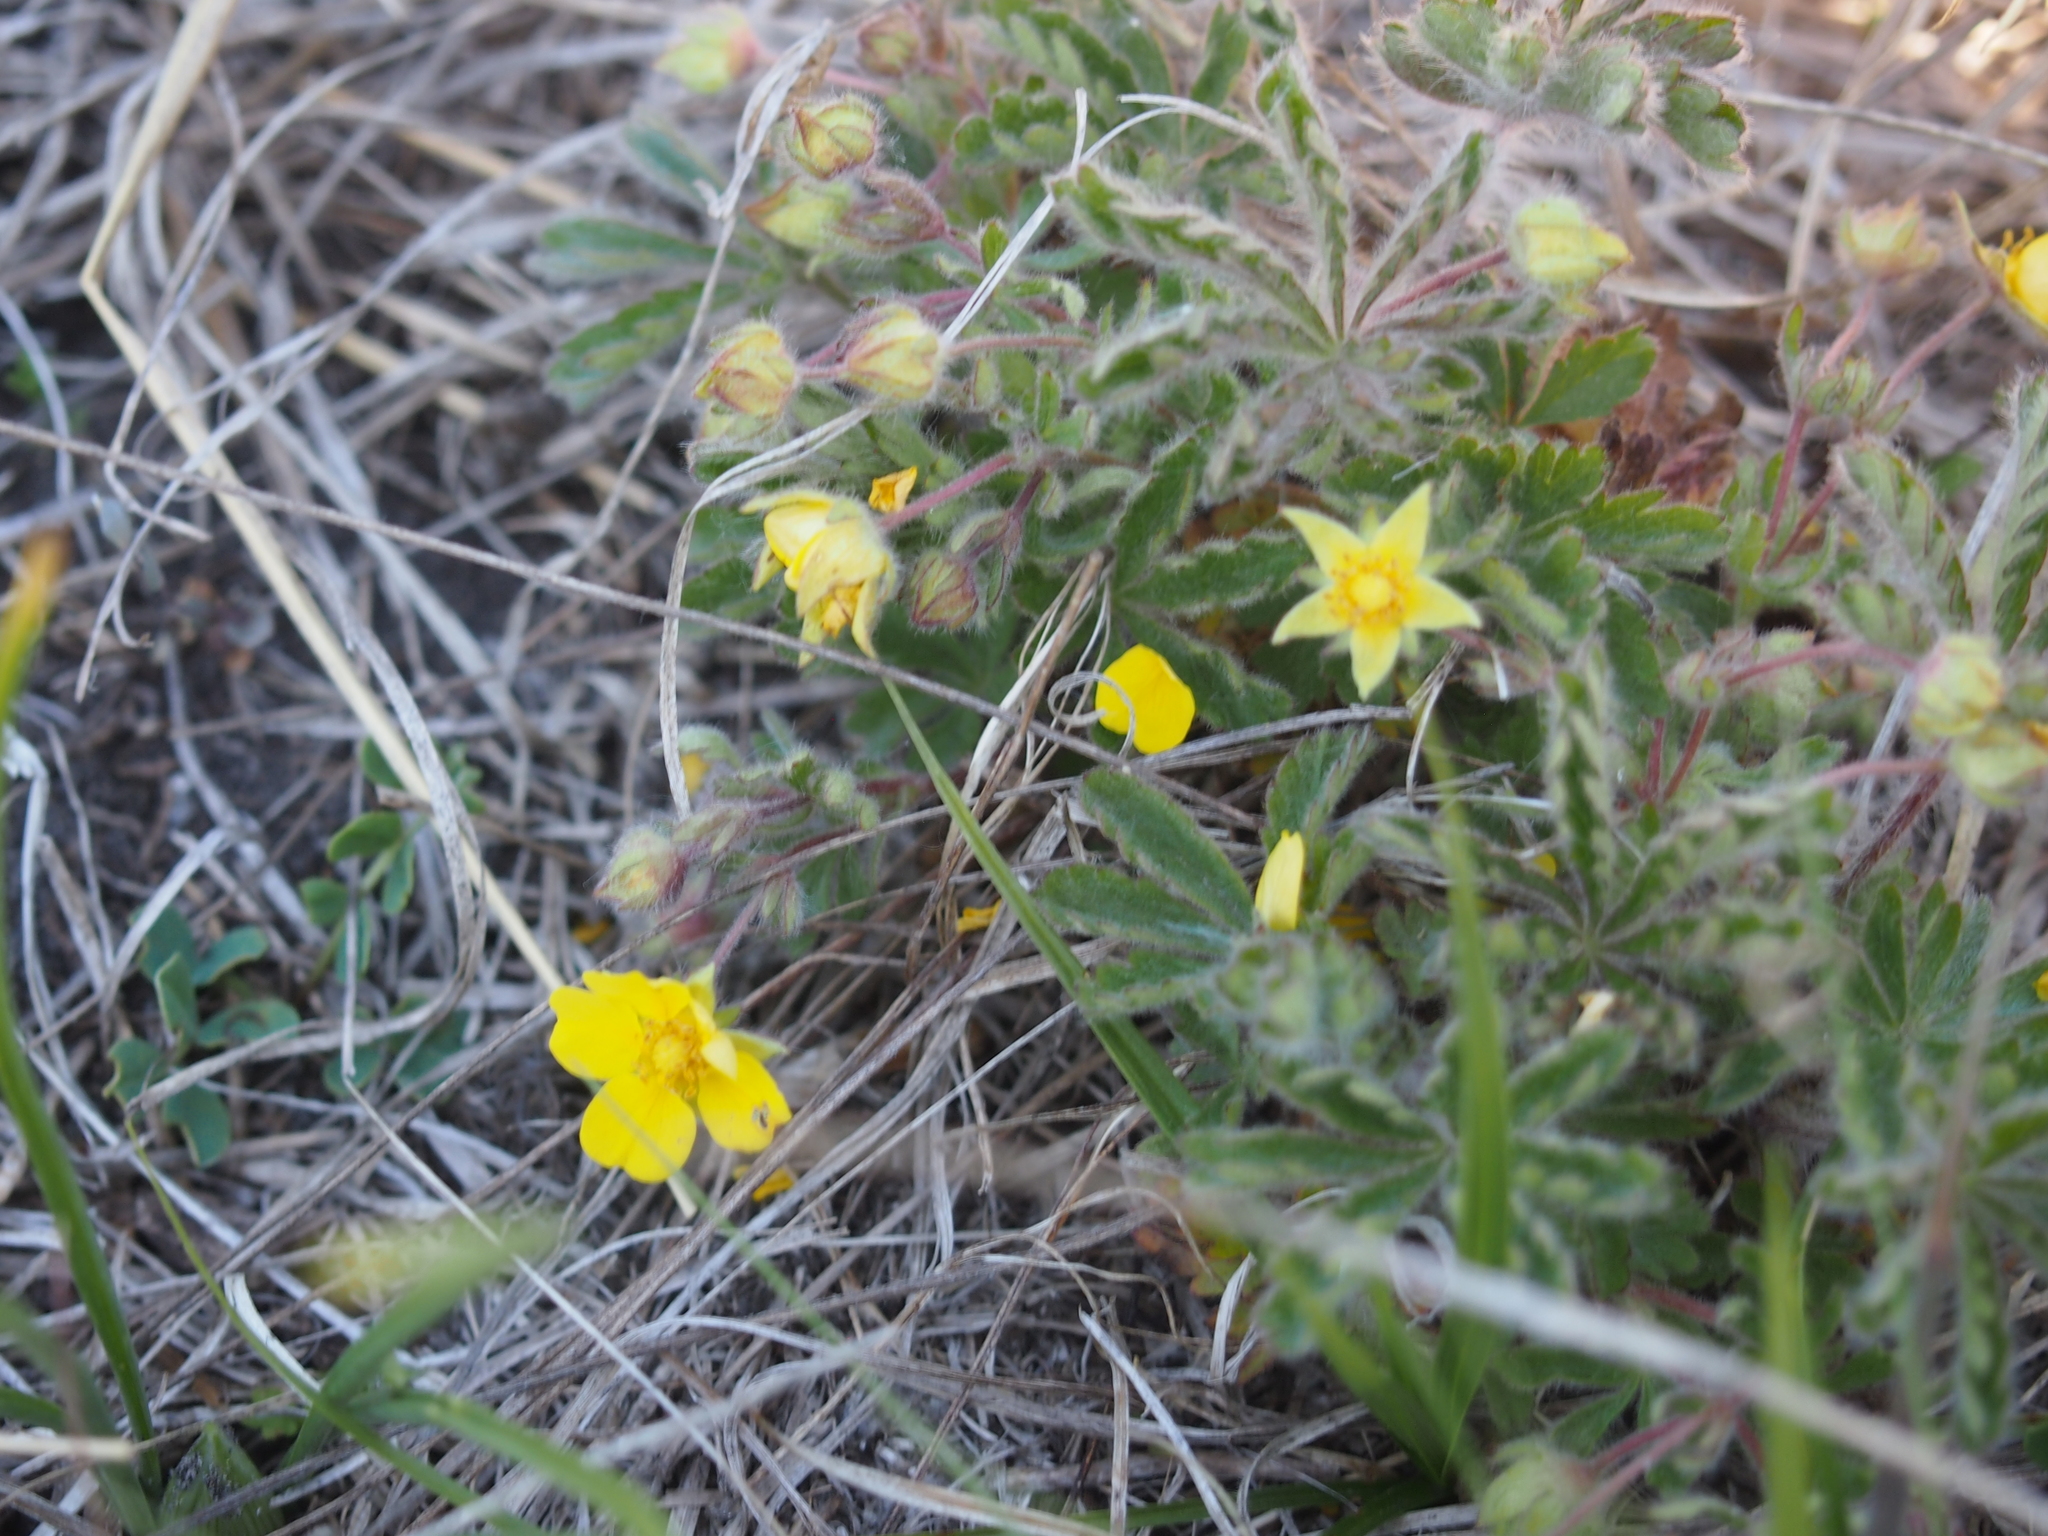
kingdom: Plantae
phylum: Tracheophyta
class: Magnoliopsida
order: Rosales
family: Rosaceae
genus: Potentilla
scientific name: Potentilla heptaphylla
